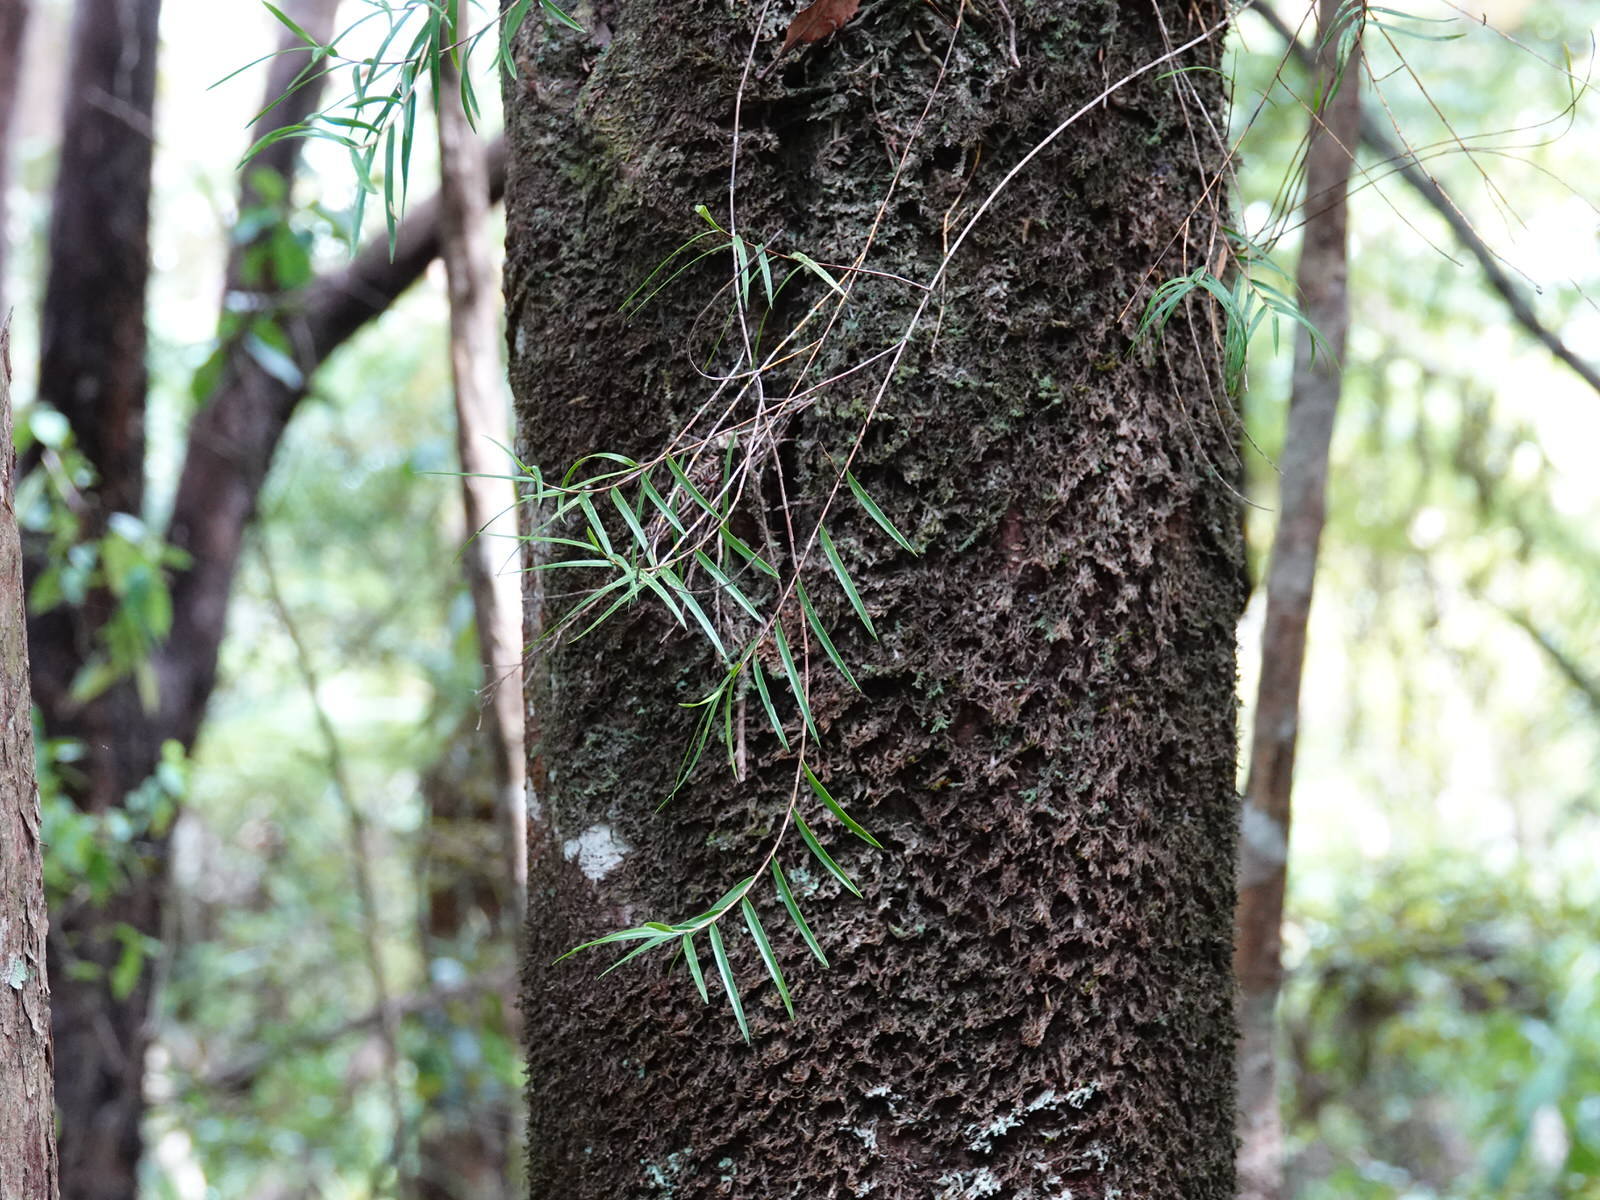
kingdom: Plantae
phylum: Tracheophyta
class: Liliopsida
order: Asparagales
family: Orchidaceae
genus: Dendrobium
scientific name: Dendrobium cunninghamii
